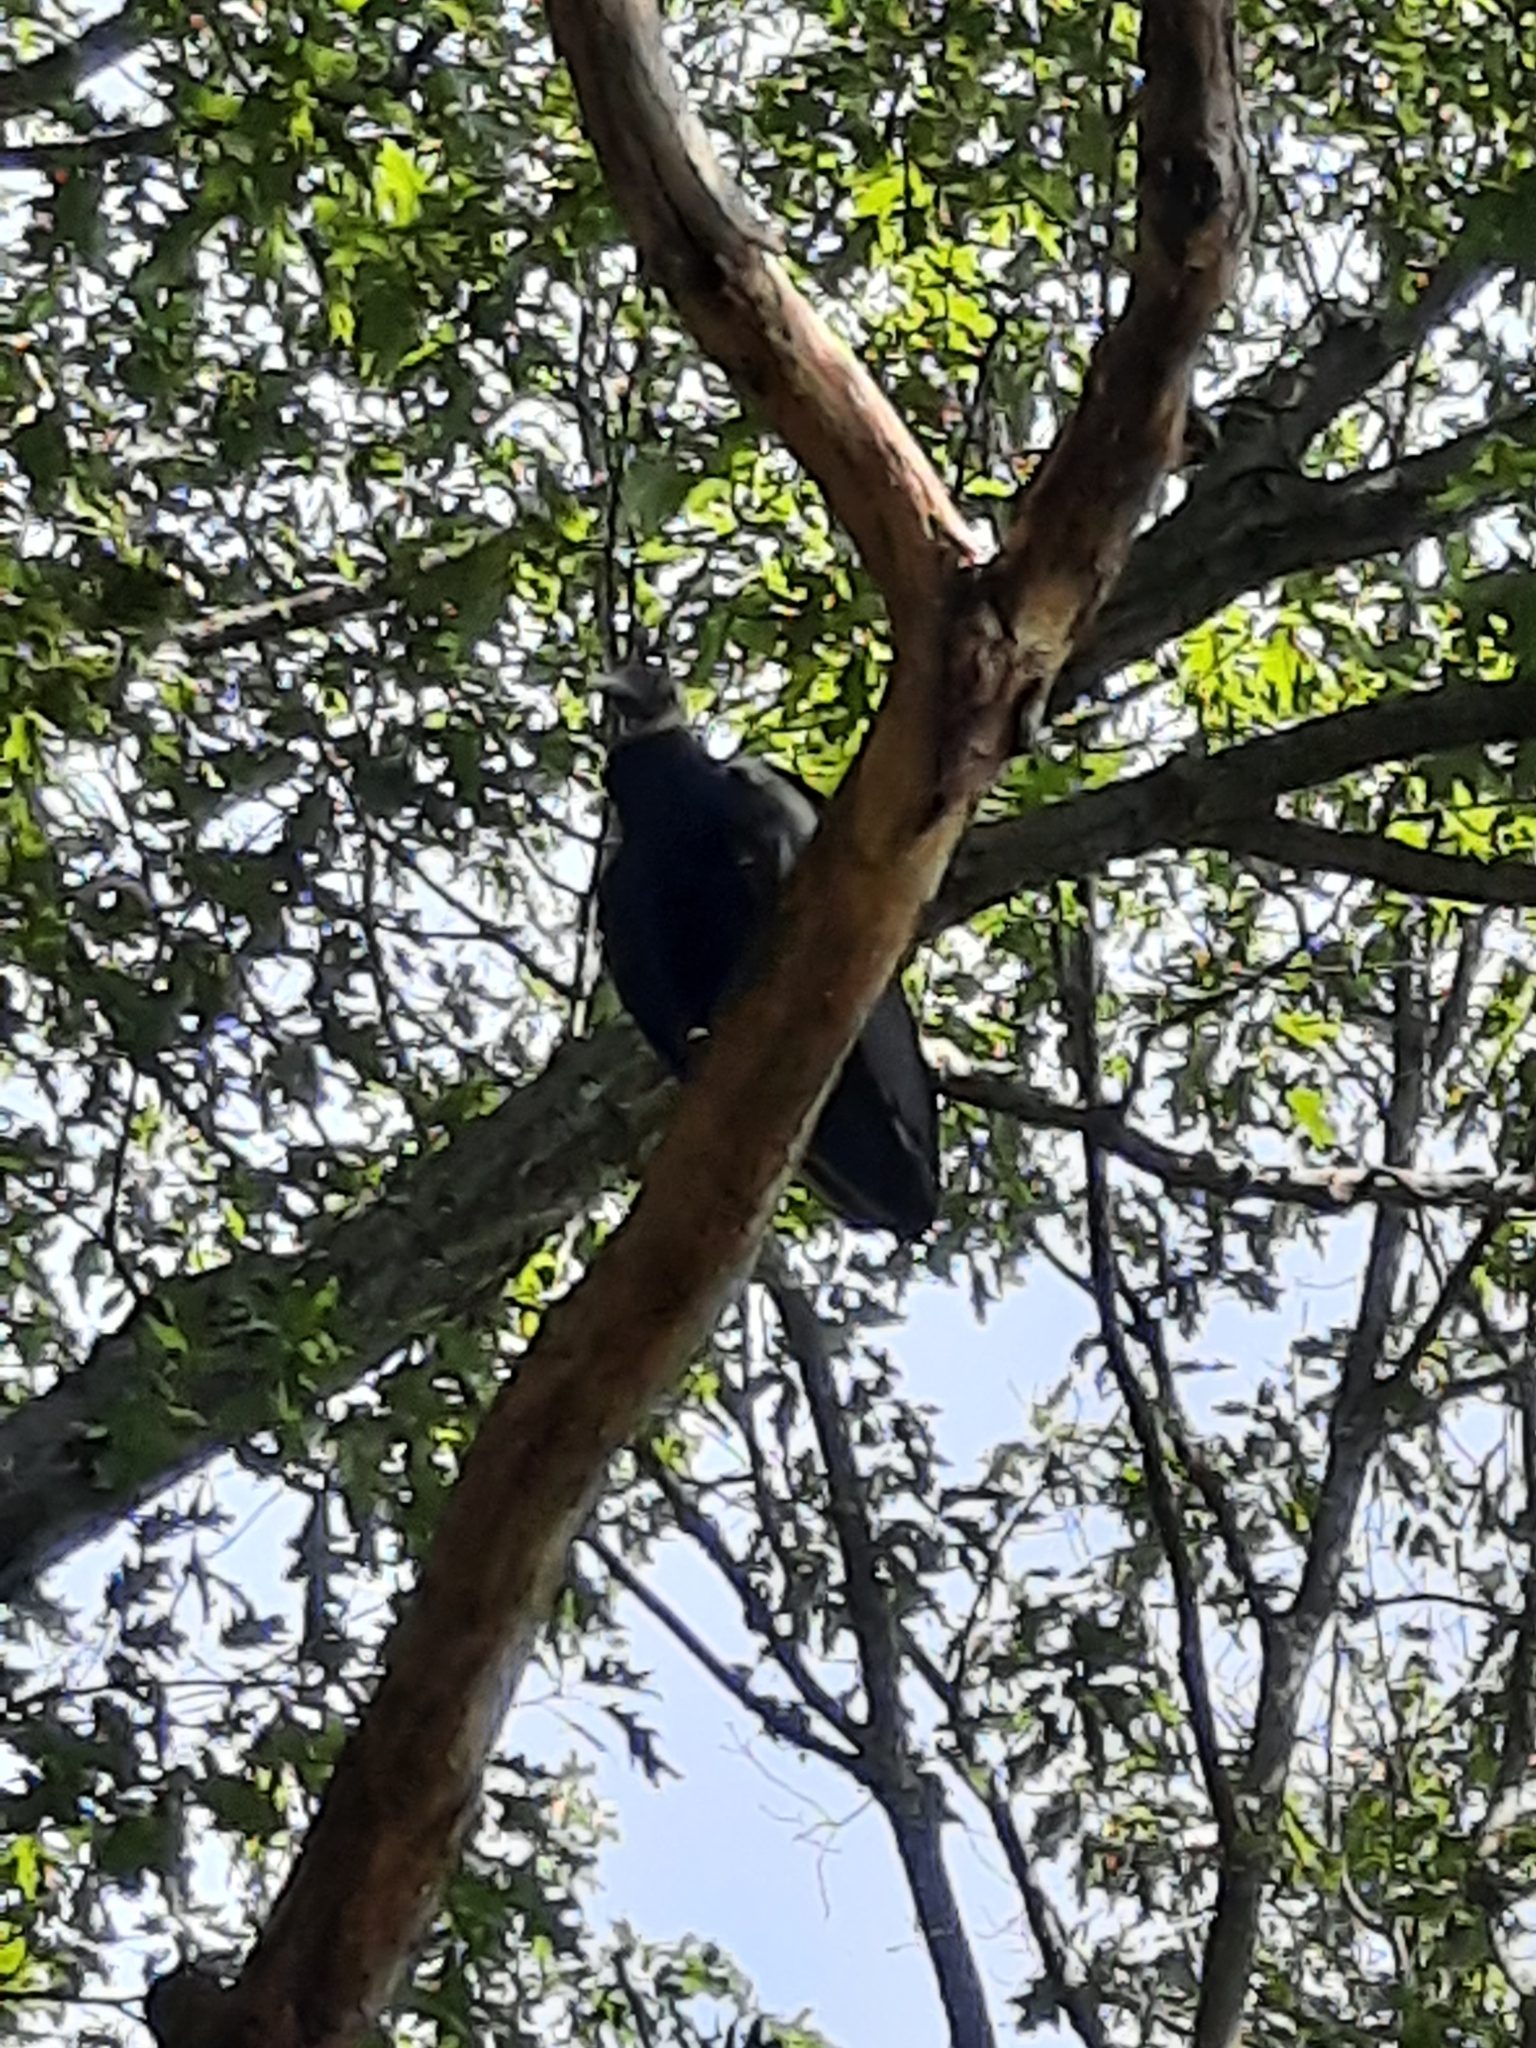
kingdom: Animalia
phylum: Chordata
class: Aves
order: Accipitriformes
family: Cathartidae
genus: Coragyps
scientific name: Coragyps atratus
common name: Black vulture
